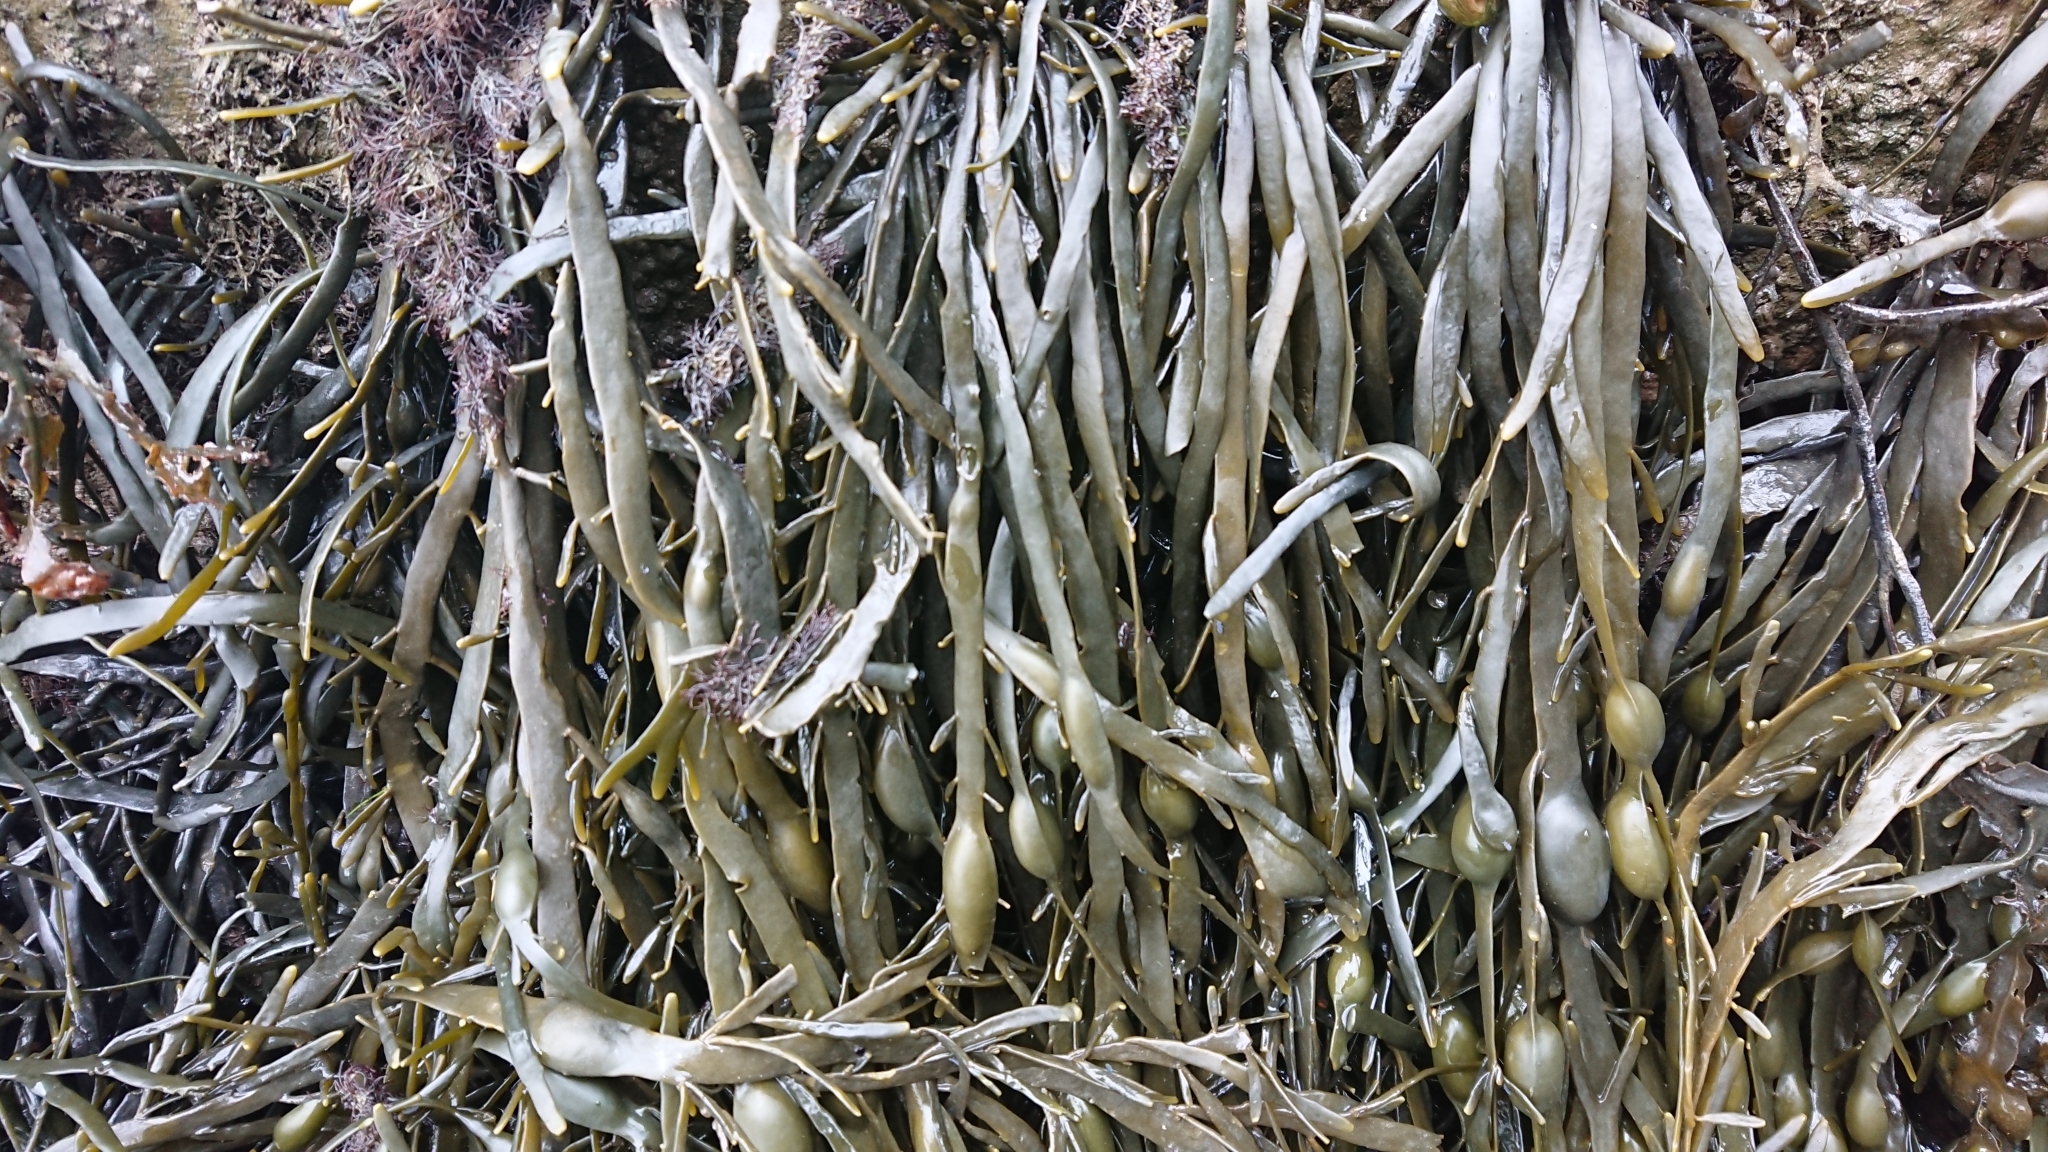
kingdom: Chromista
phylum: Ochrophyta
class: Phaeophyceae
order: Fucales
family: Fucaceae
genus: Ascophyllum
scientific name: Ascophyllum nodosum
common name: Knotted wrack
